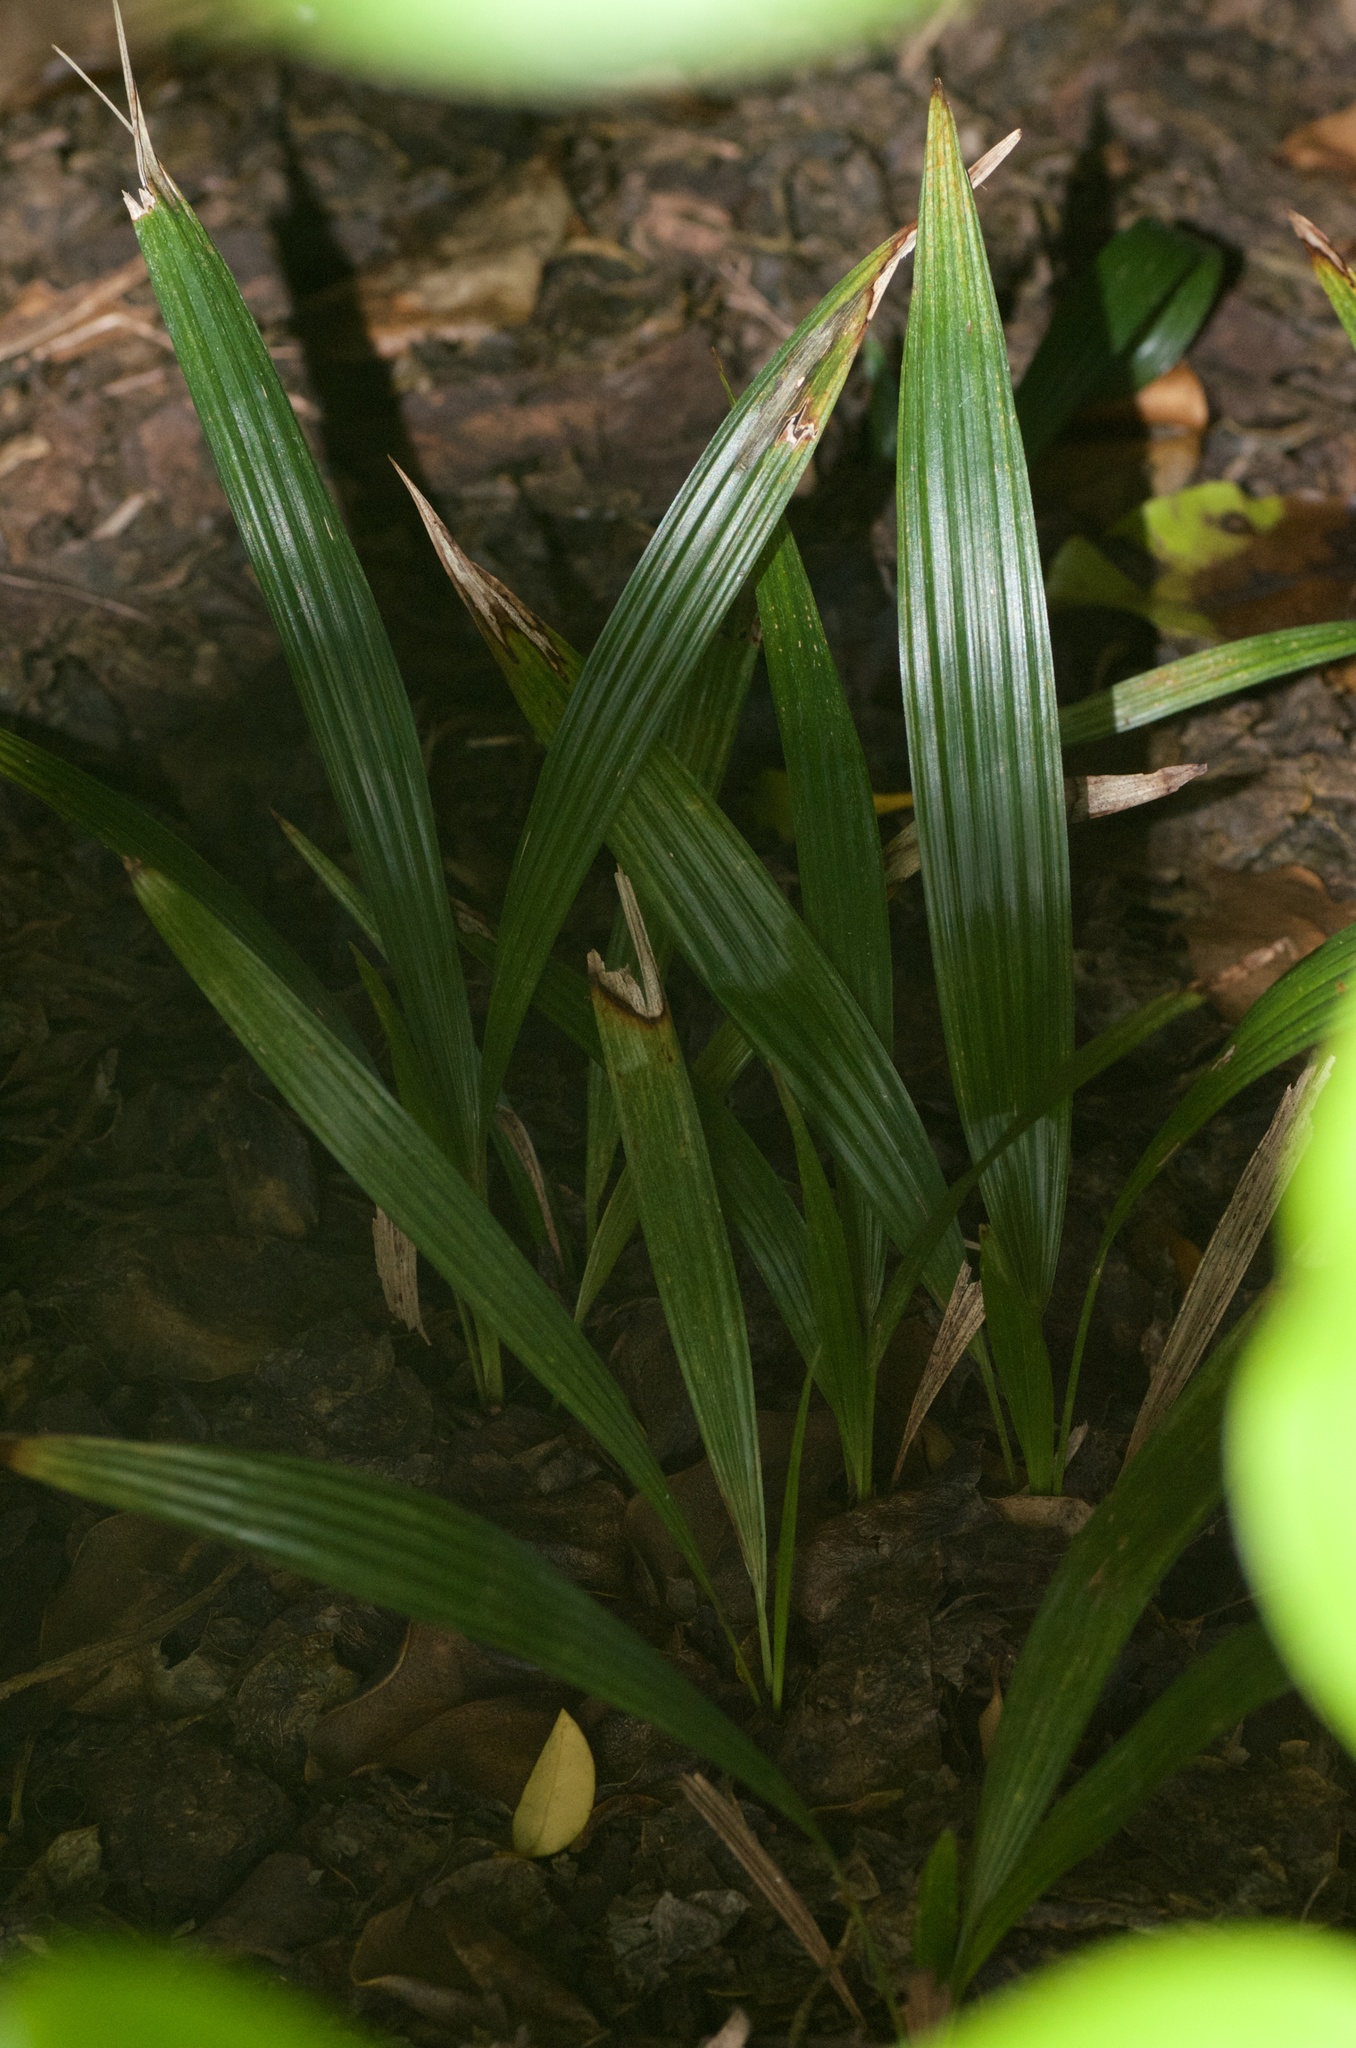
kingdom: Plantae
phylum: Tracheophyta
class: Liliopsida
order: Arecales
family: Arecaceae
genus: Trachycarpus
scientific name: Trachycarpus fortunei
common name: Chusan palm
